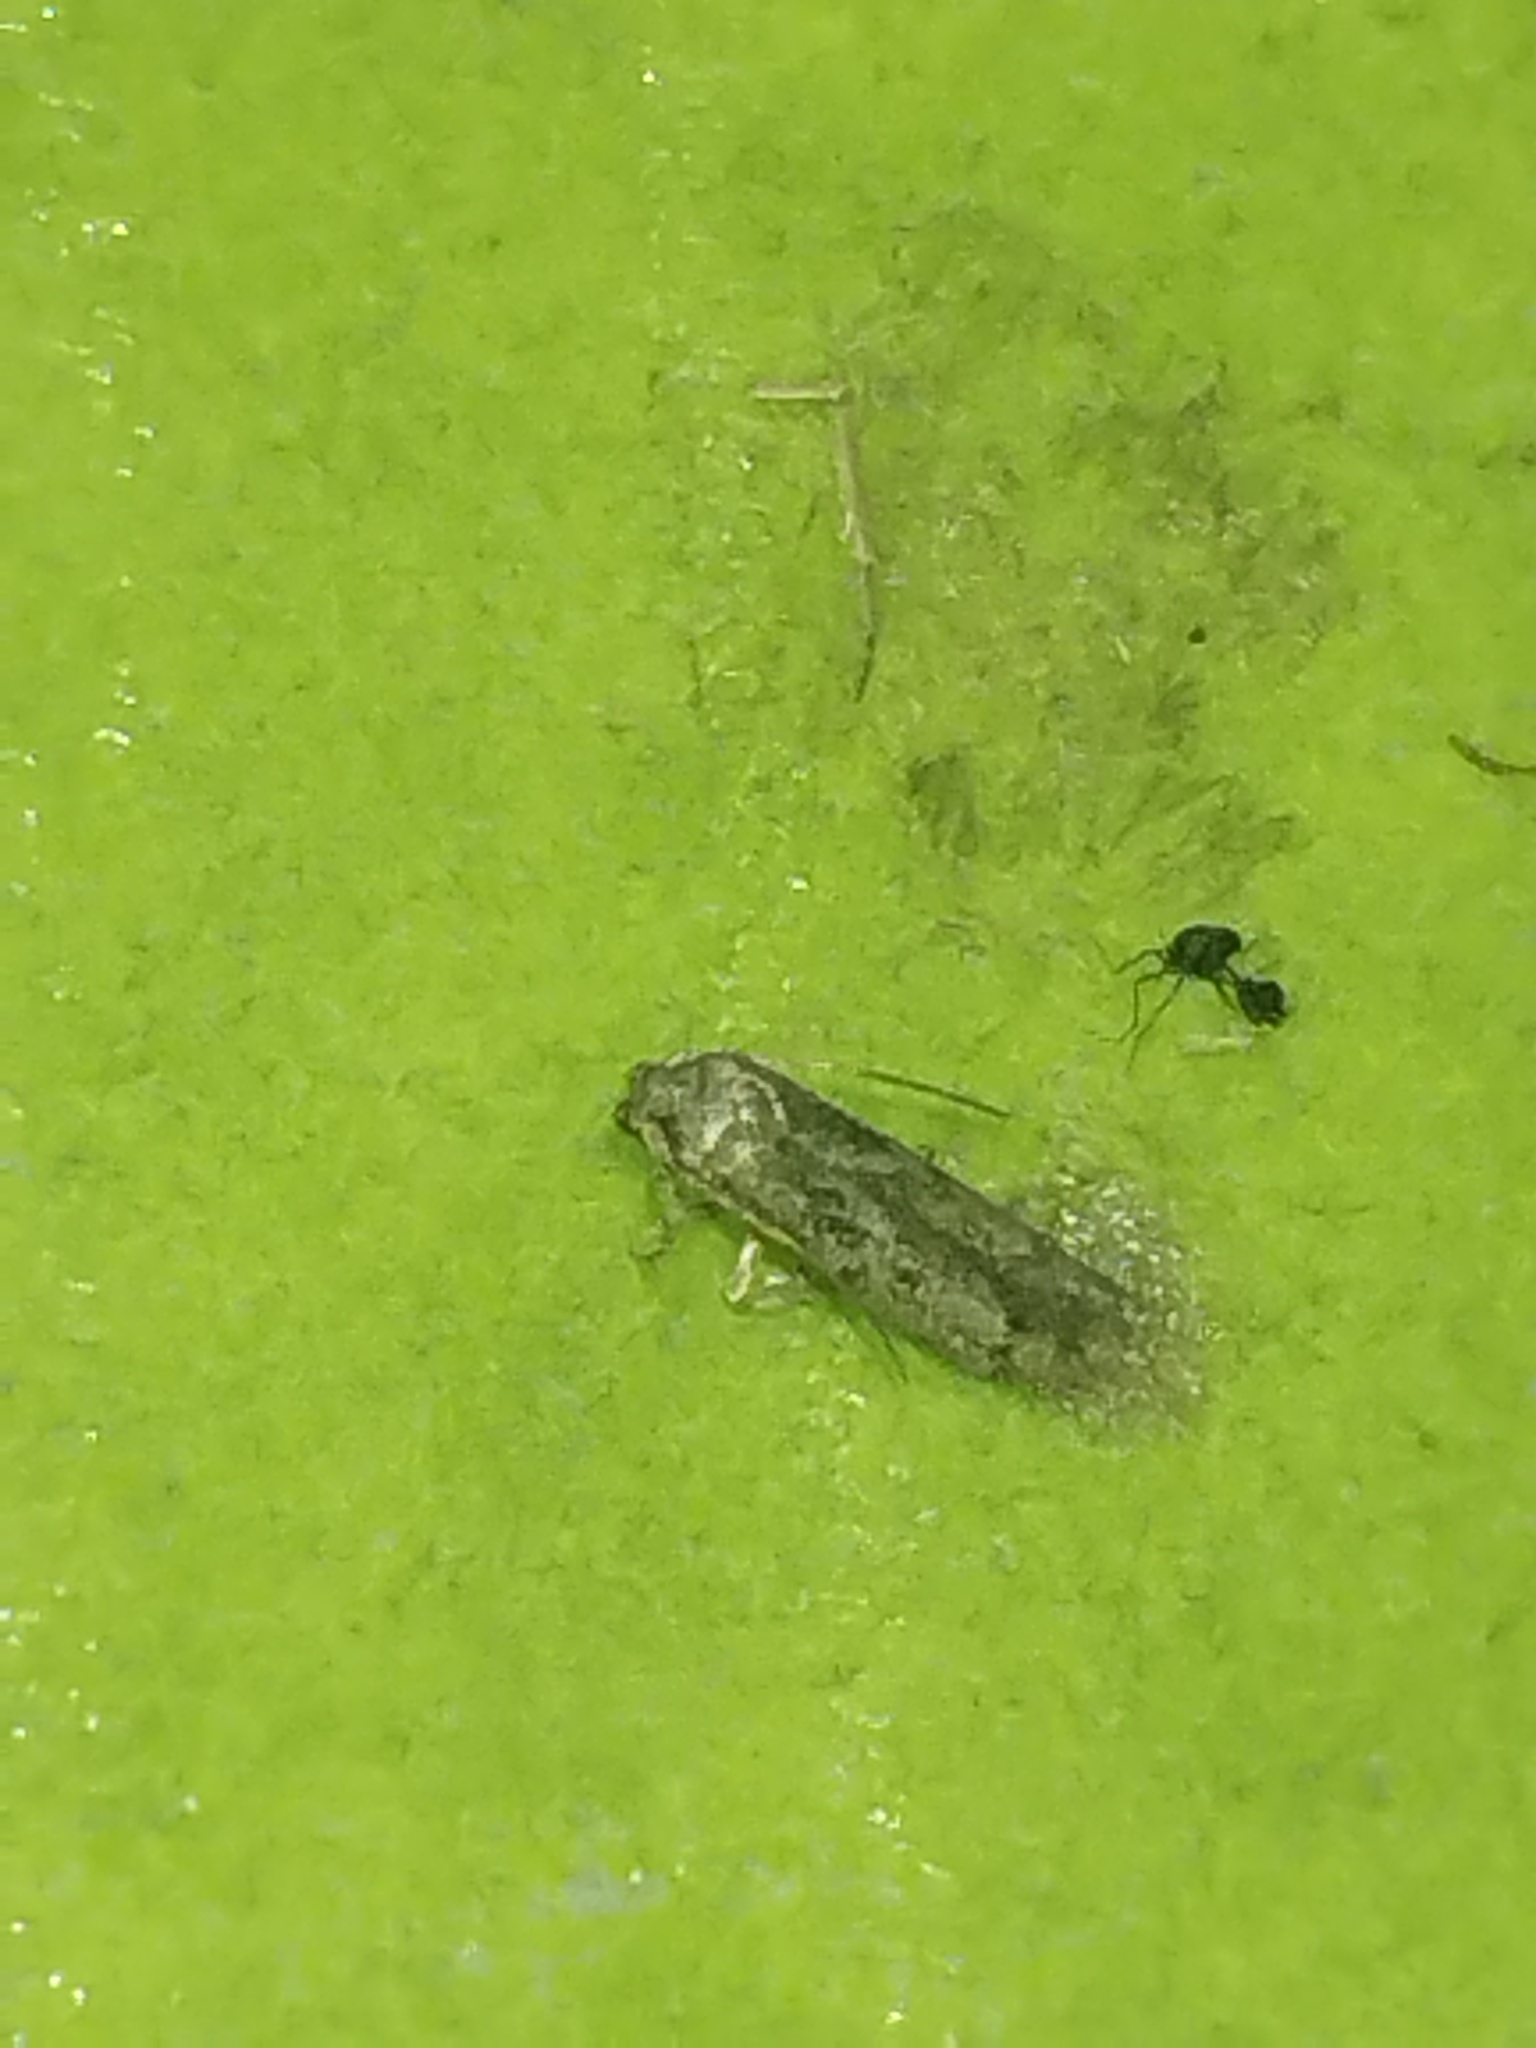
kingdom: Animalia
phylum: Arthropoda
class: Insecta
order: Lepidoptera
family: Tortricidae
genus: Gretchena
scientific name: Gretchena bolliana
